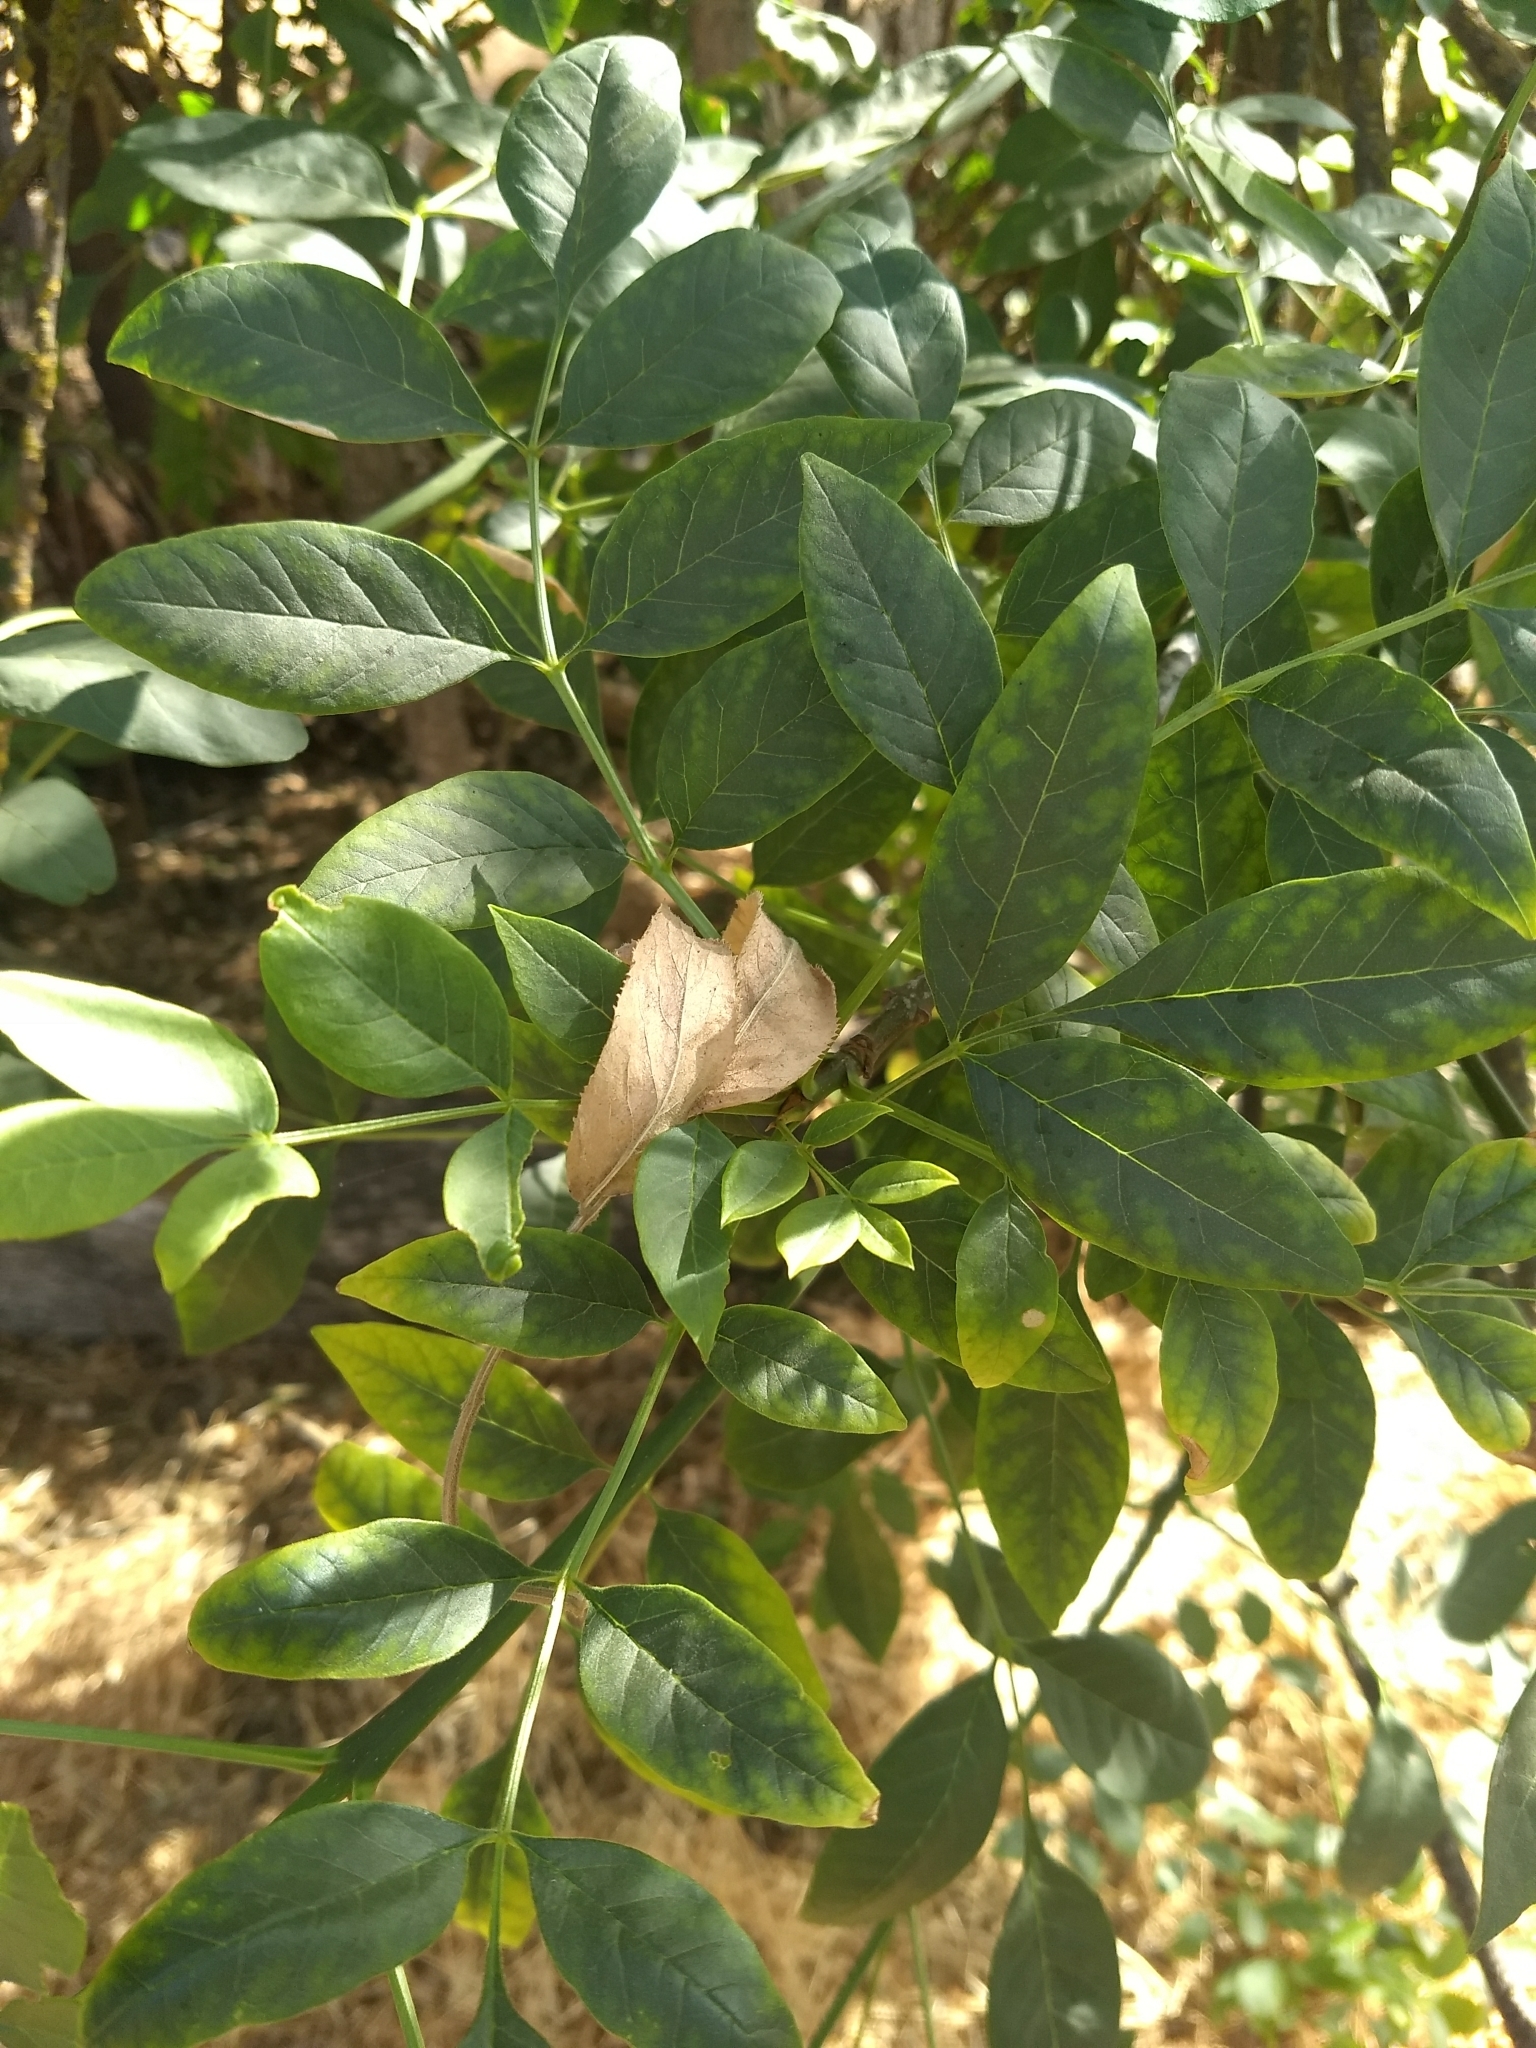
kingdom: Plantae
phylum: Tracheophyta
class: Magnoliopsida
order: Lamiales
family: Oleaceae
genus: Fraxinus
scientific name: Fraxinus latifolia
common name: Oregon ash
